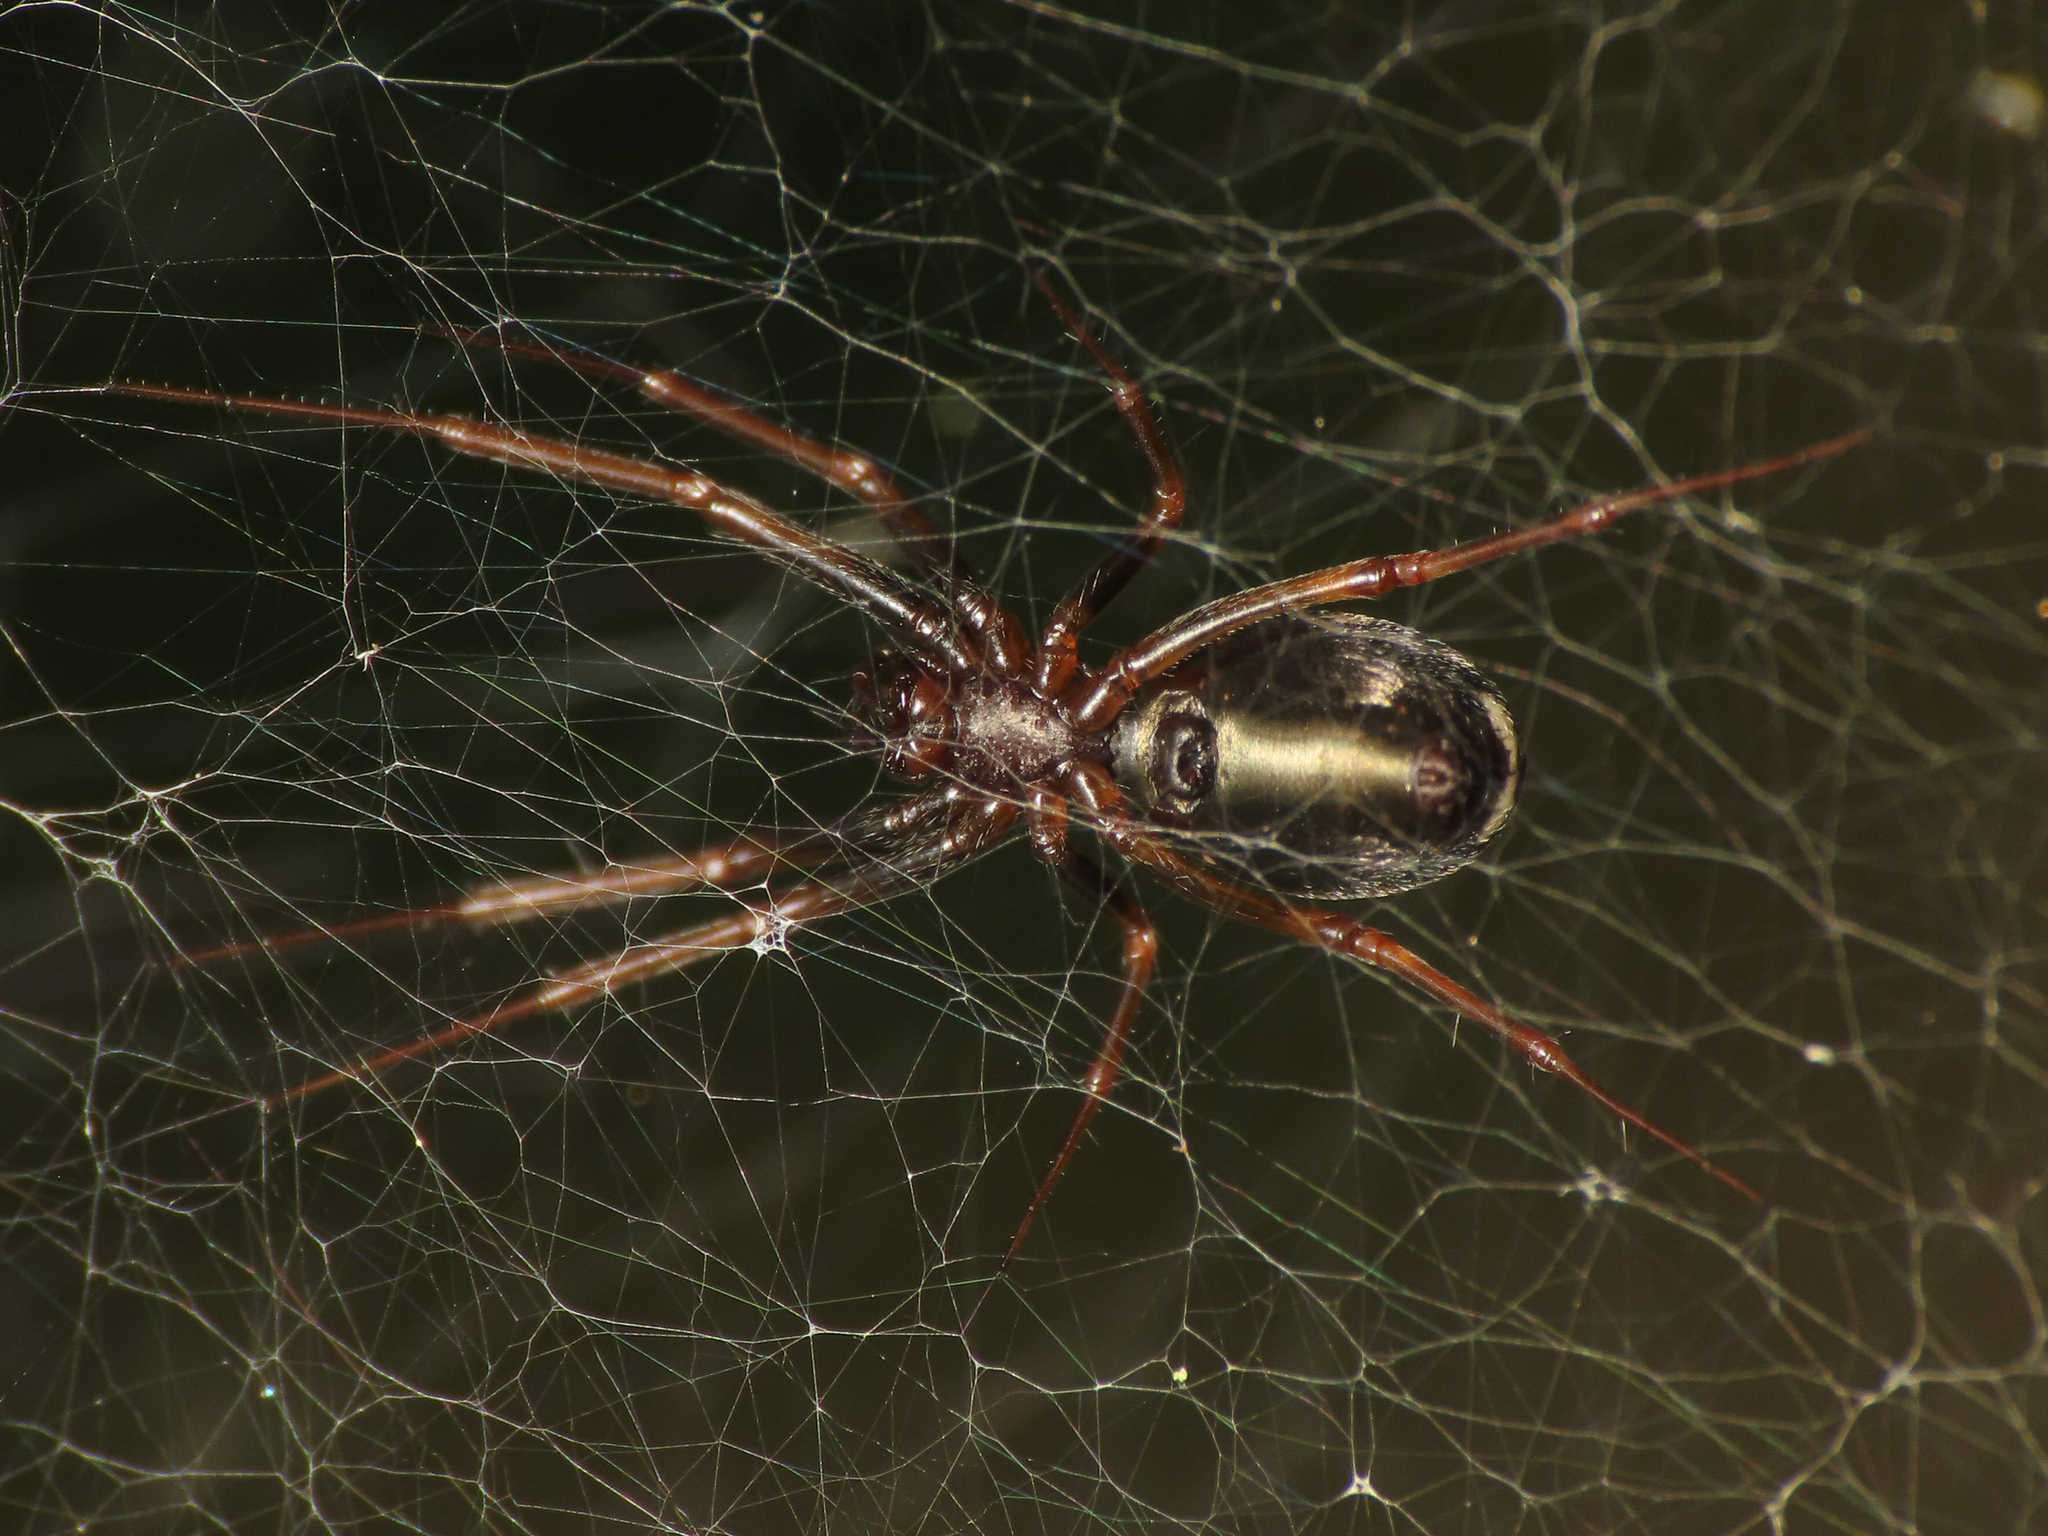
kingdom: Animalia
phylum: Arthropoda
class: Arachnida
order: Araneae
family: Linyphiidae
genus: Neriene
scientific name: Neriene furtiva
